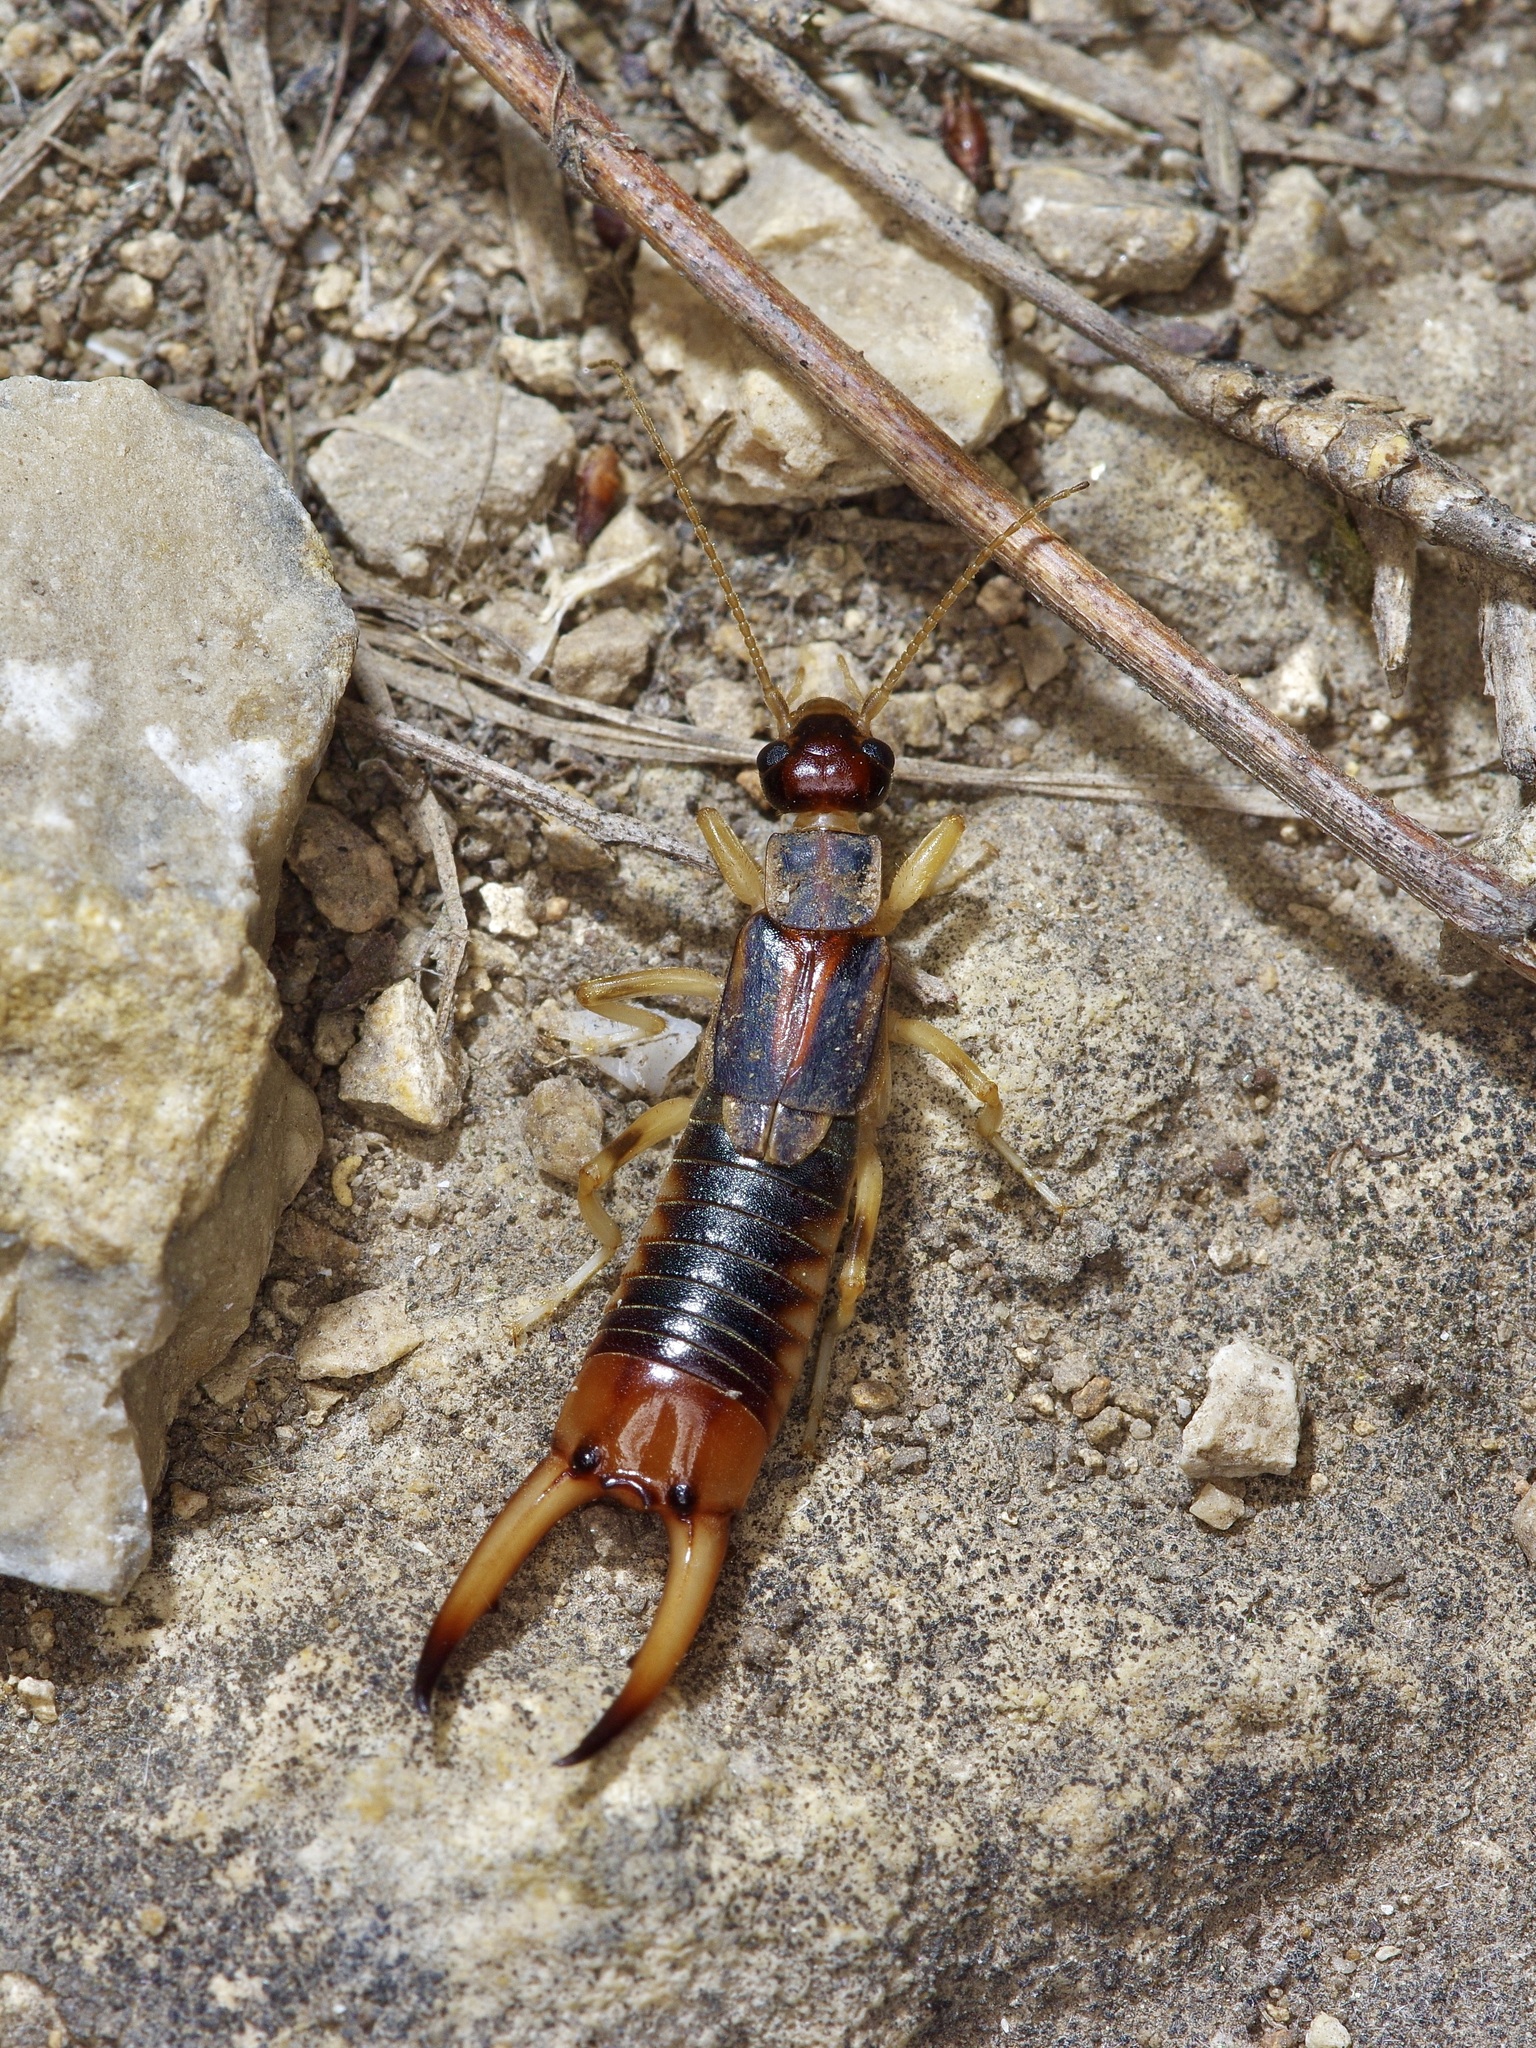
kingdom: Animalia
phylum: Arthropoda
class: Insecta
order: Dermaptera
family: Labiduridae
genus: Labidura
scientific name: Labidura riparia
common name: Striped earwig
